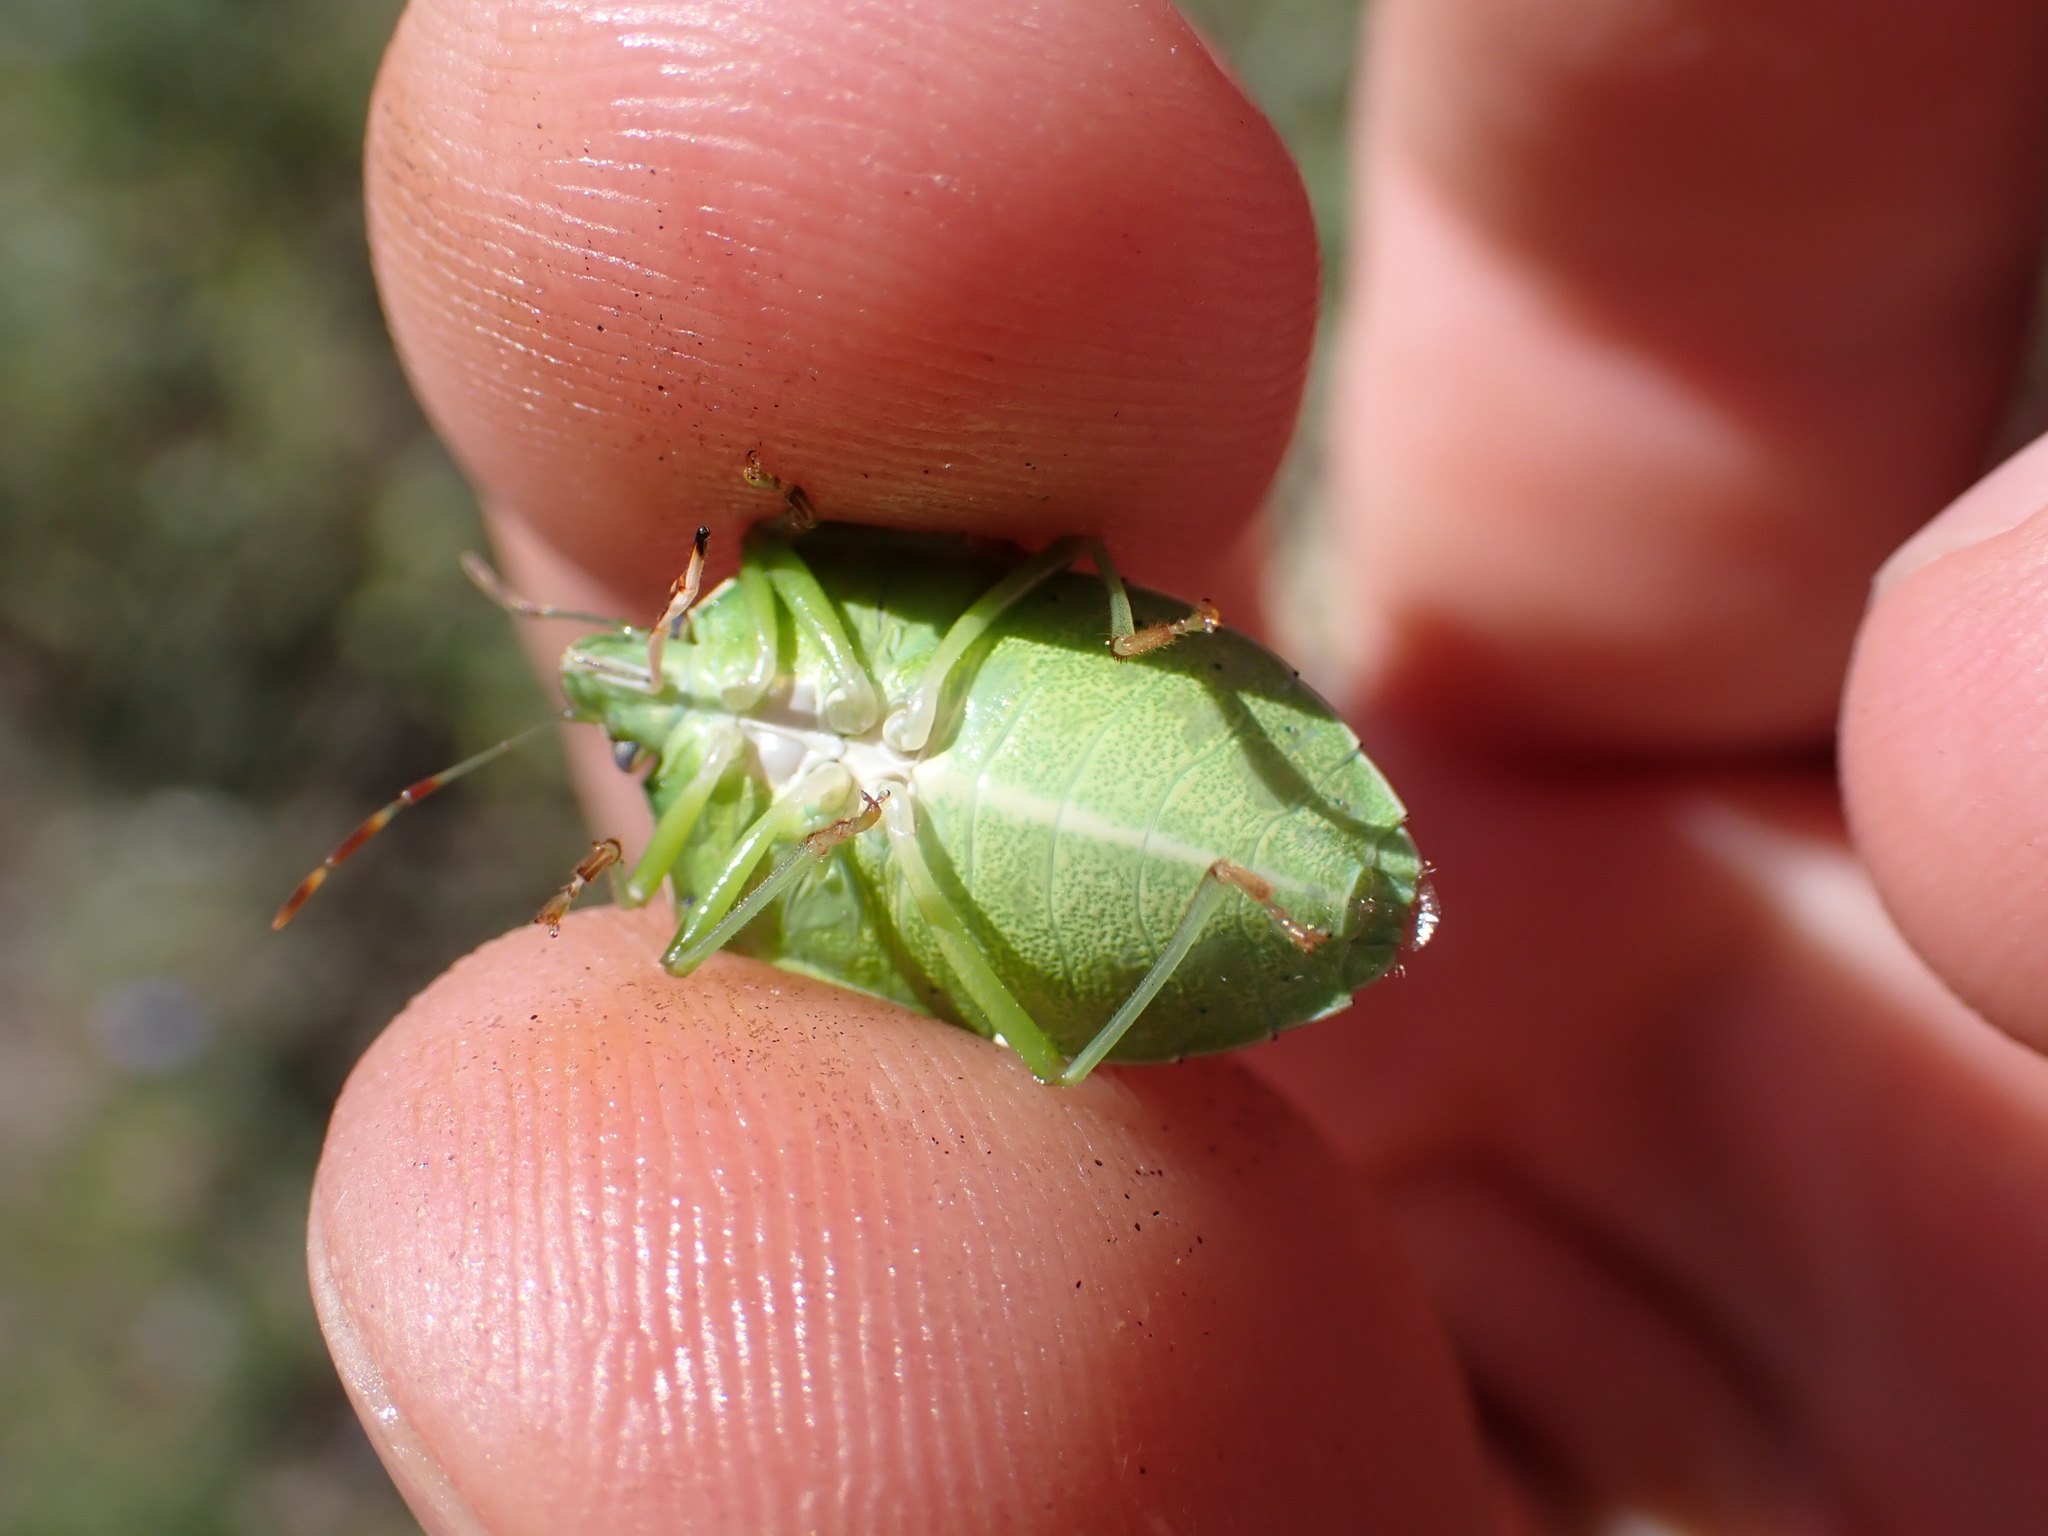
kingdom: Animalia
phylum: Arthropoda
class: Insecta
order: Hemiptera
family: Pentatomidae
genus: Nezara
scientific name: Nezara viridula
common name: Southern green stink bug
